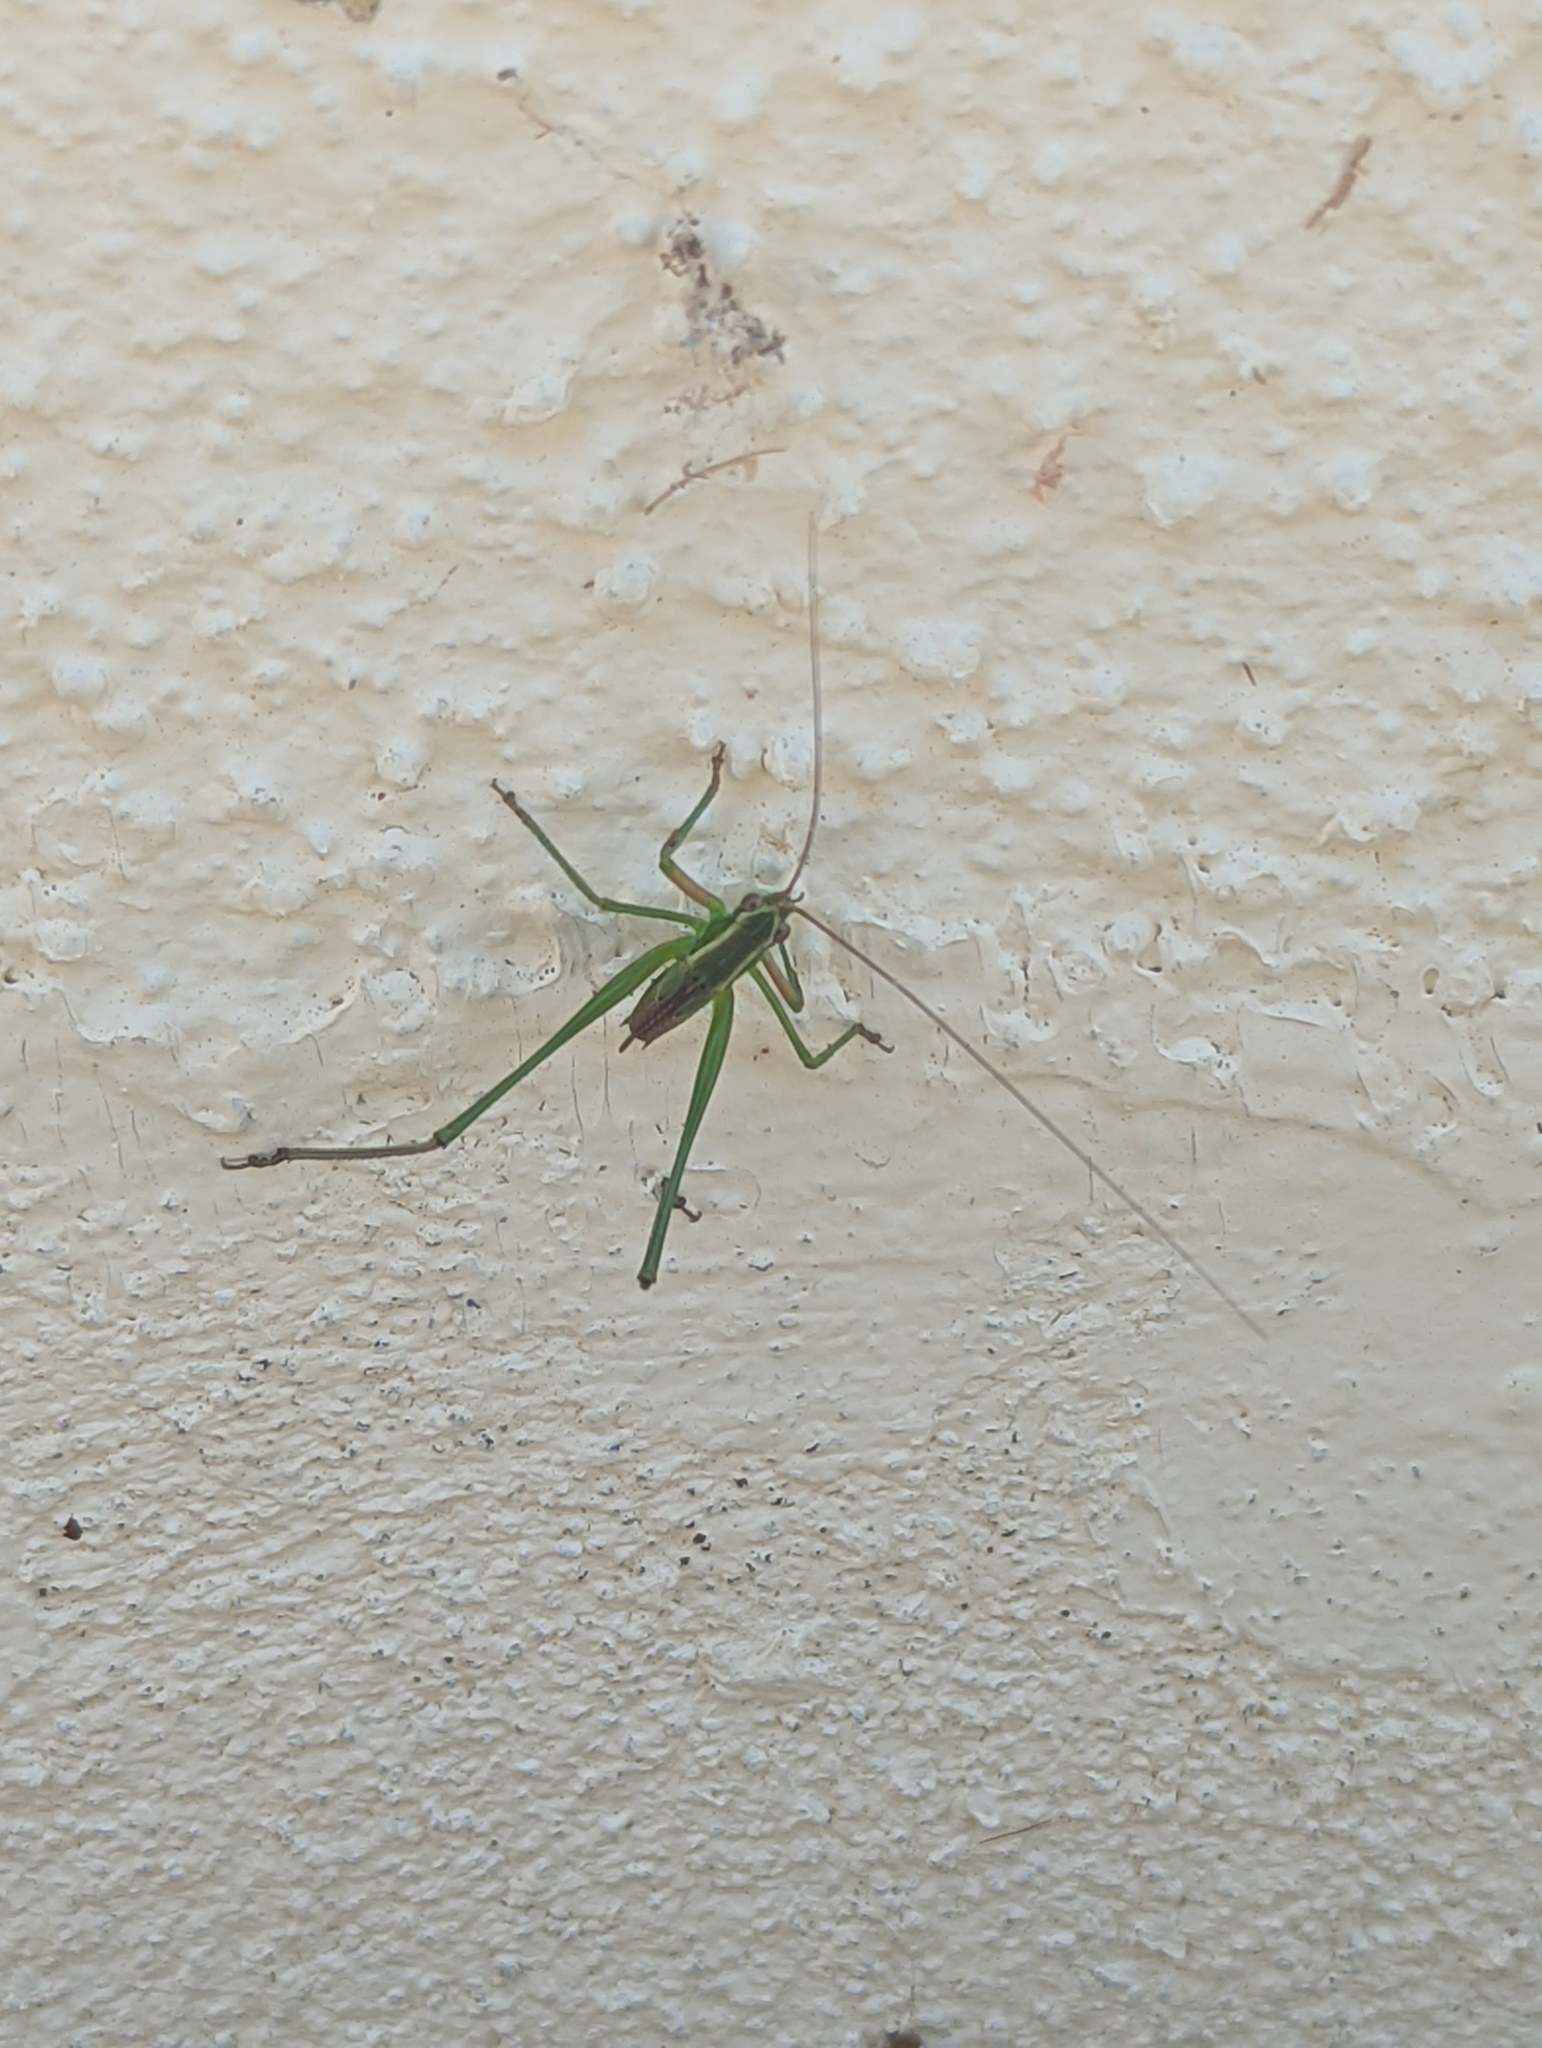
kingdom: Animalia
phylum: Arthropoda
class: Insecta
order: Orthoptera
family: Tettigoniidae
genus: Scudderia
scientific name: Scudderia
